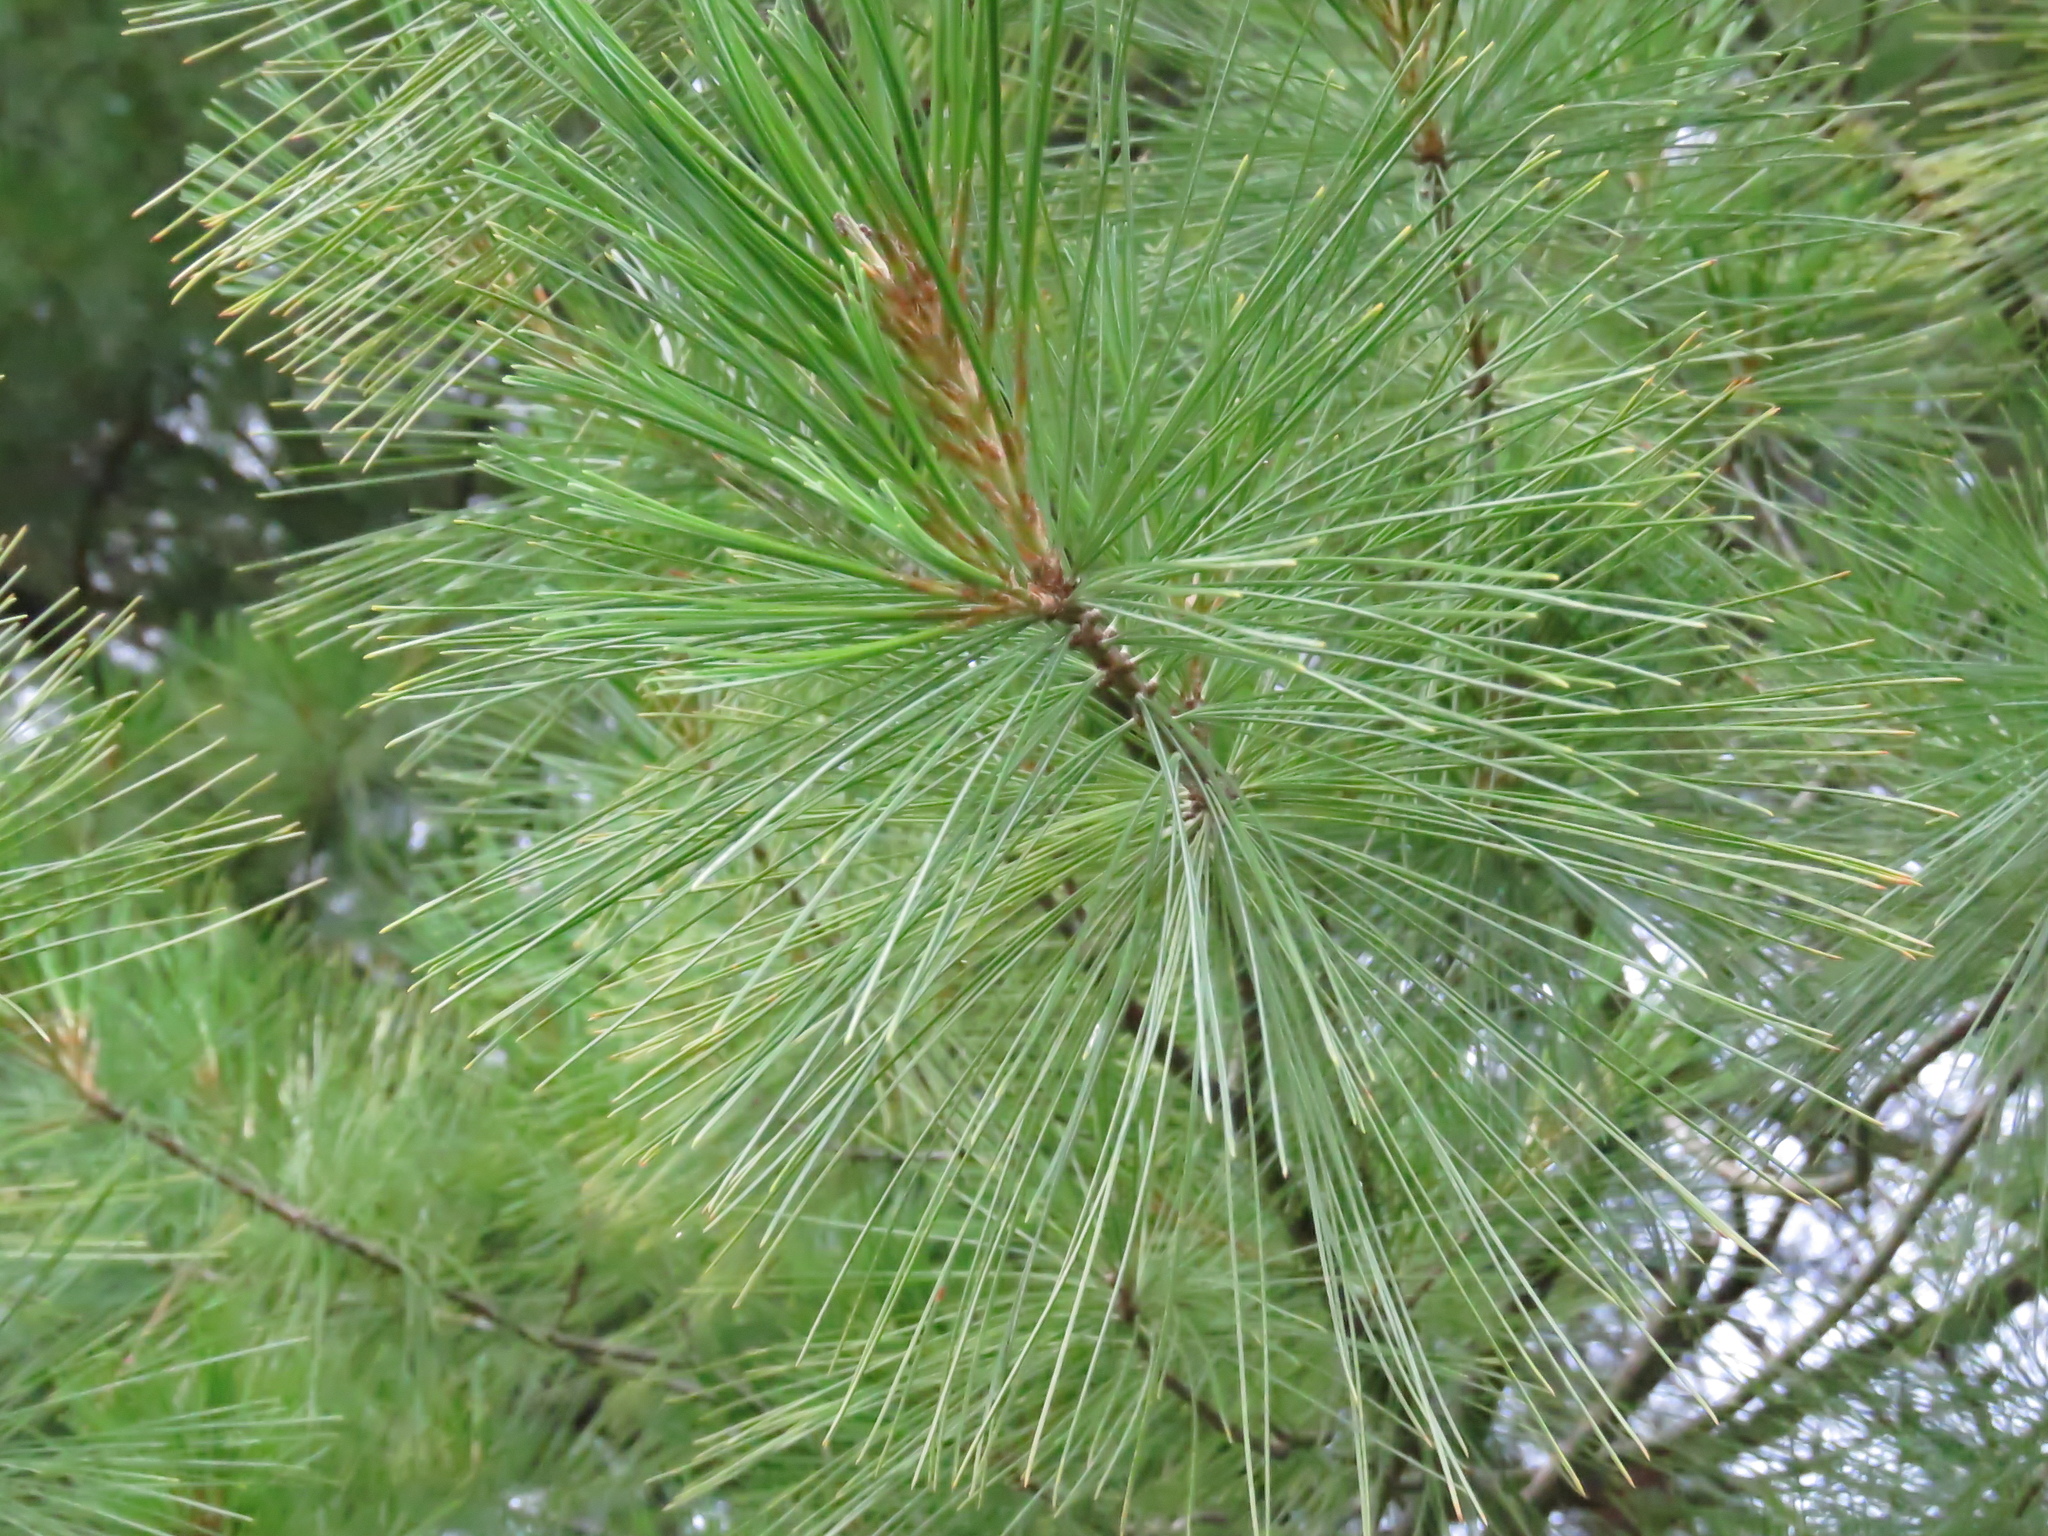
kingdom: Plantae
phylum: Tracheophyta
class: Pinopsida
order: Pinales
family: Pinaceae
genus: Pinus
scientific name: Pinus strobus
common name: Weymouth pine
